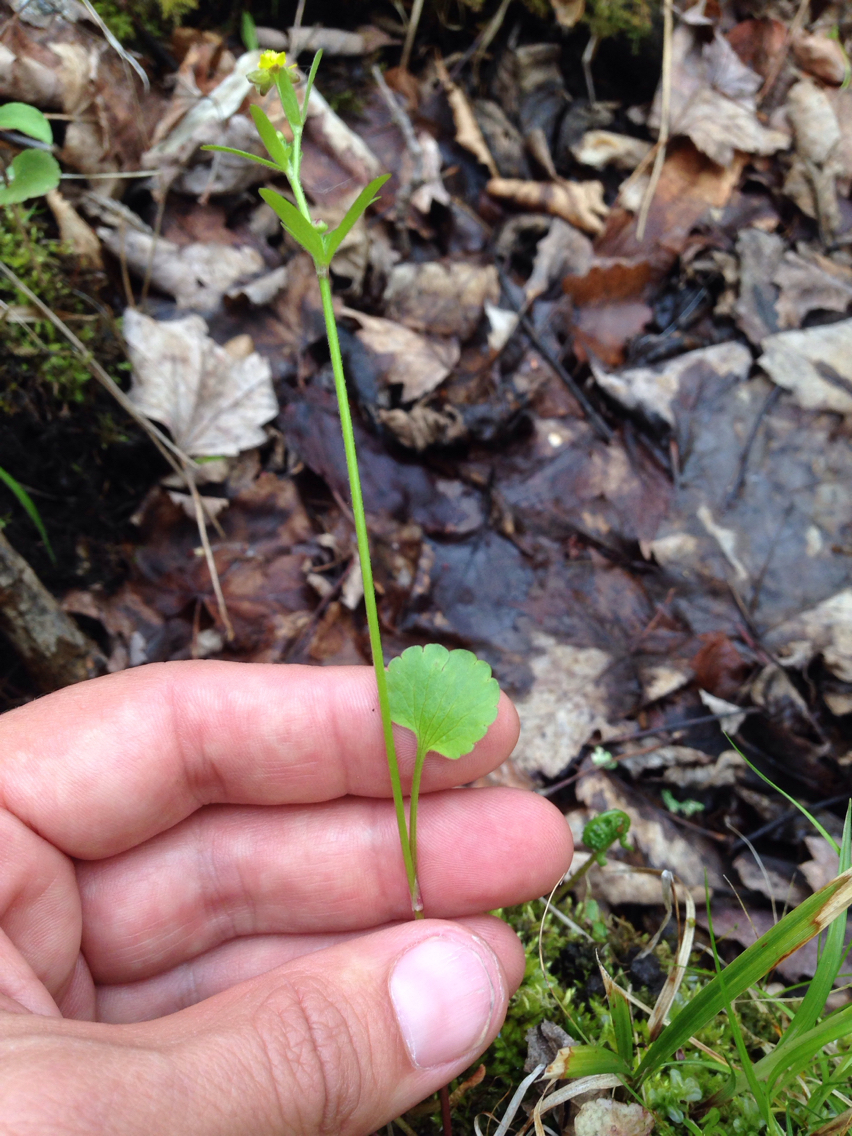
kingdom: Plantae
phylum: Tracheophyta
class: Magnoliopsida
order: Ranunculales
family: Ranunculaceae
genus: Ranunculus
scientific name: Ranunculus abortivus
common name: Early wood buttercup
